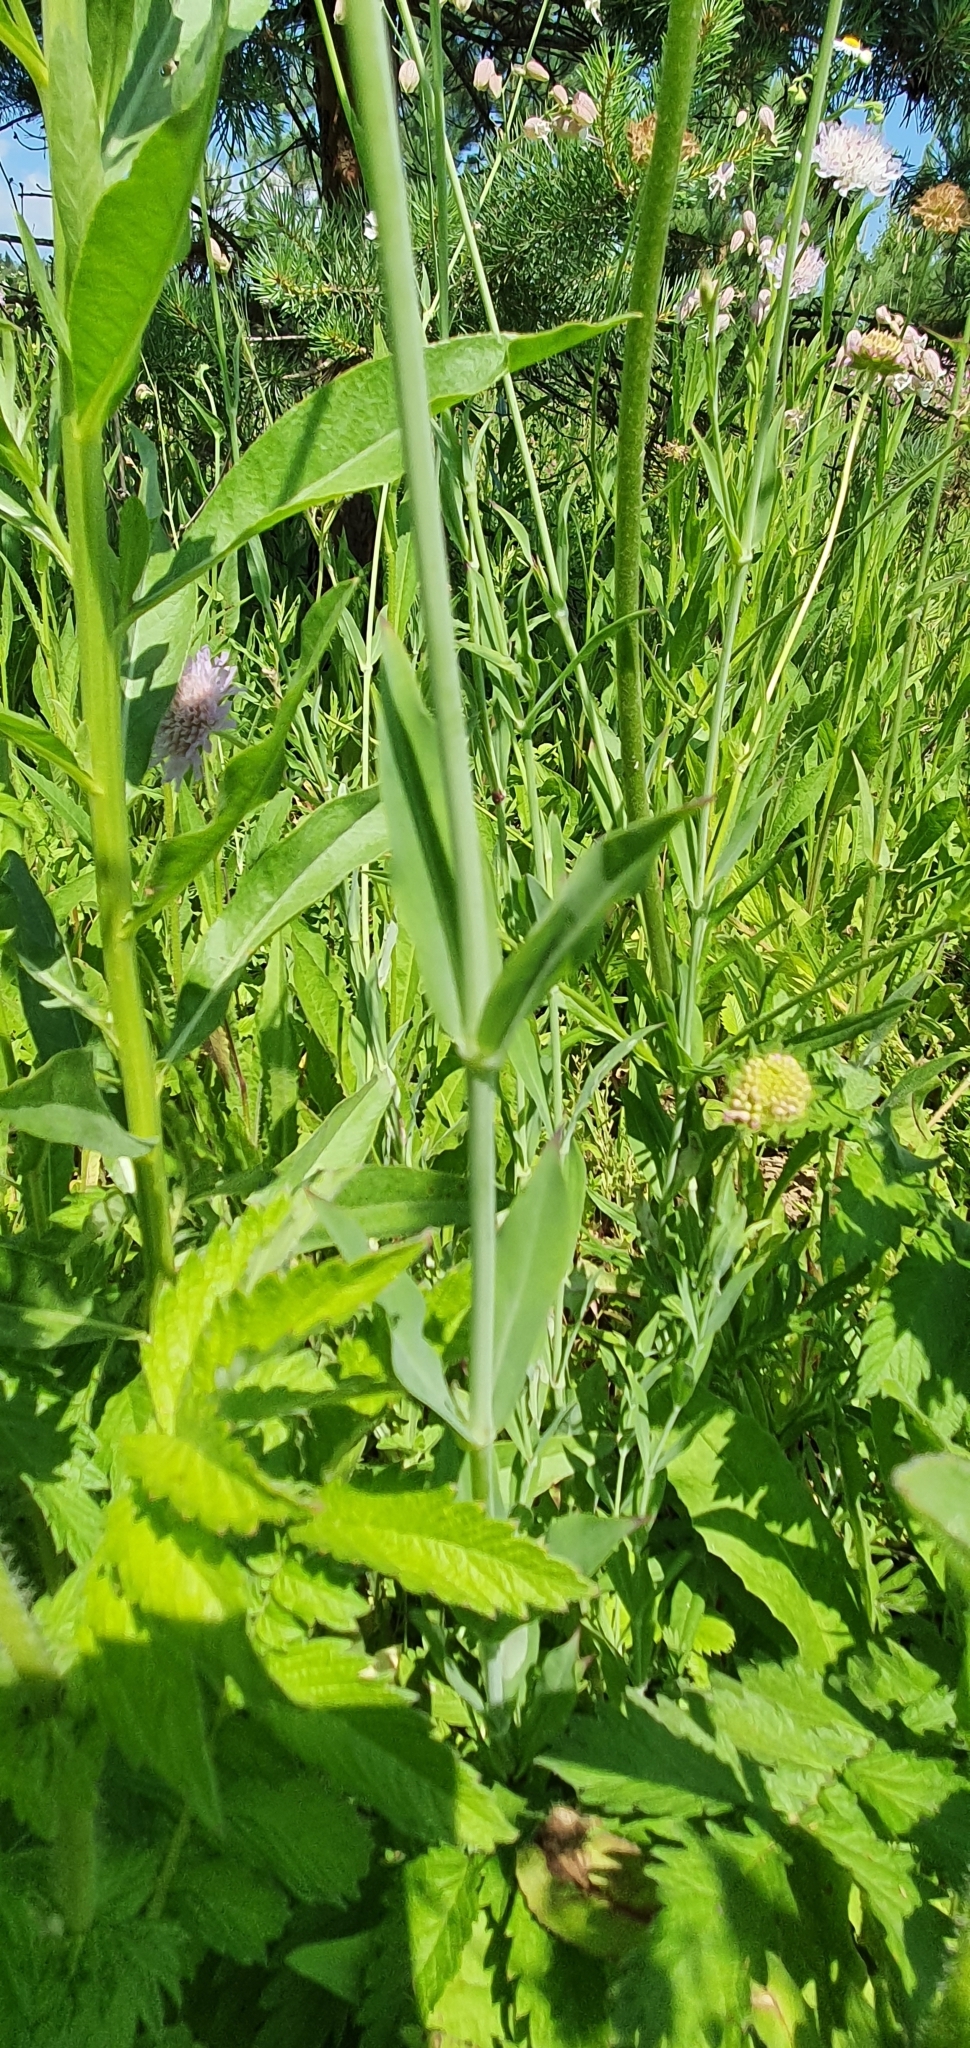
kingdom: Plantae
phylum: Tracheophyta
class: Magnoliopsida
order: Caryophyllales
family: Caryophyllaceae
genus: Silene
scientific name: Silene vulgaris
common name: Bladder campion
